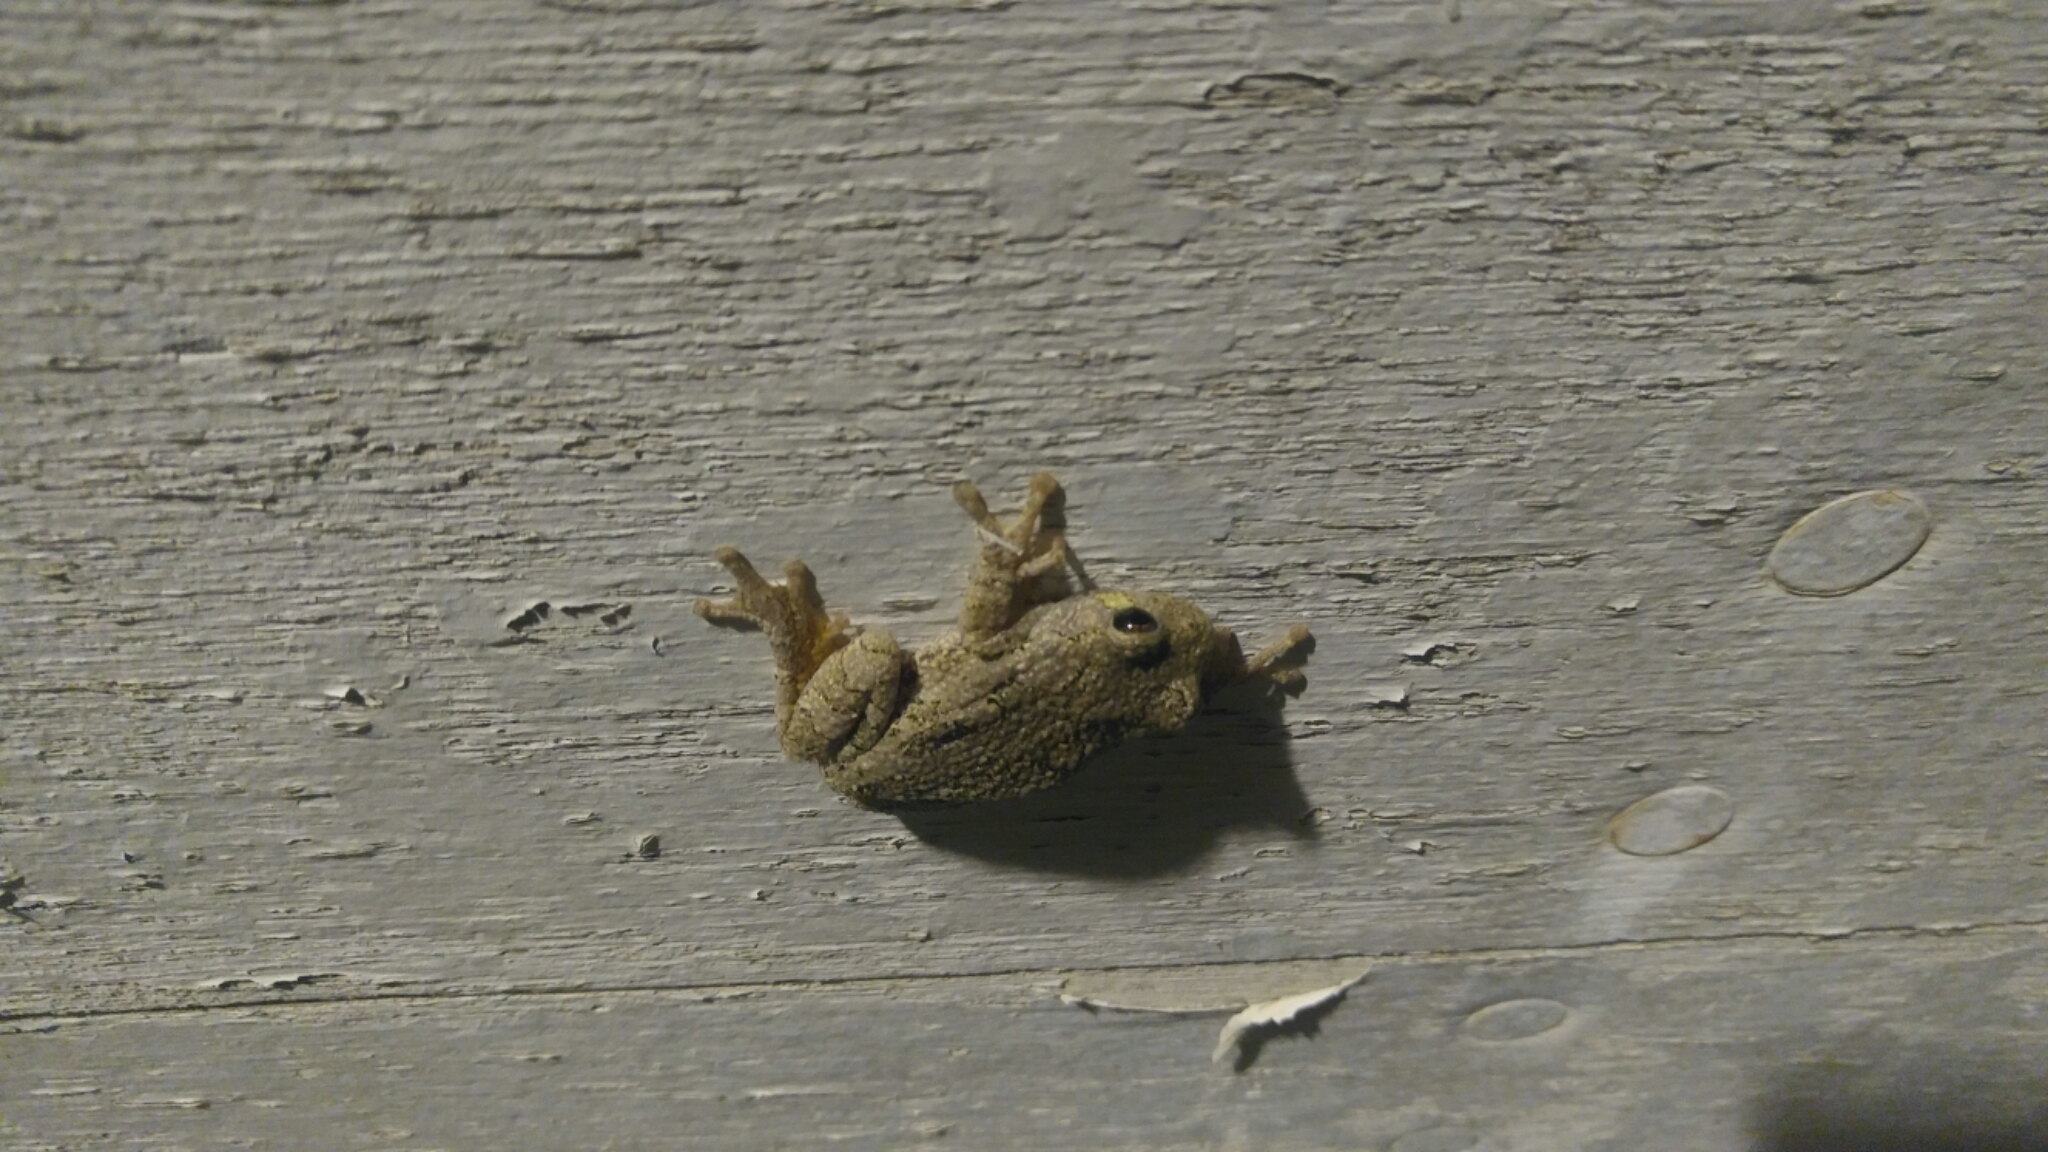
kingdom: Animalia
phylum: Chordata
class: Amphibia
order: Anura
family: Hylidae
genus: Dryophytes
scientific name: Dryophytes versicolor
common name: Gray treefrog
